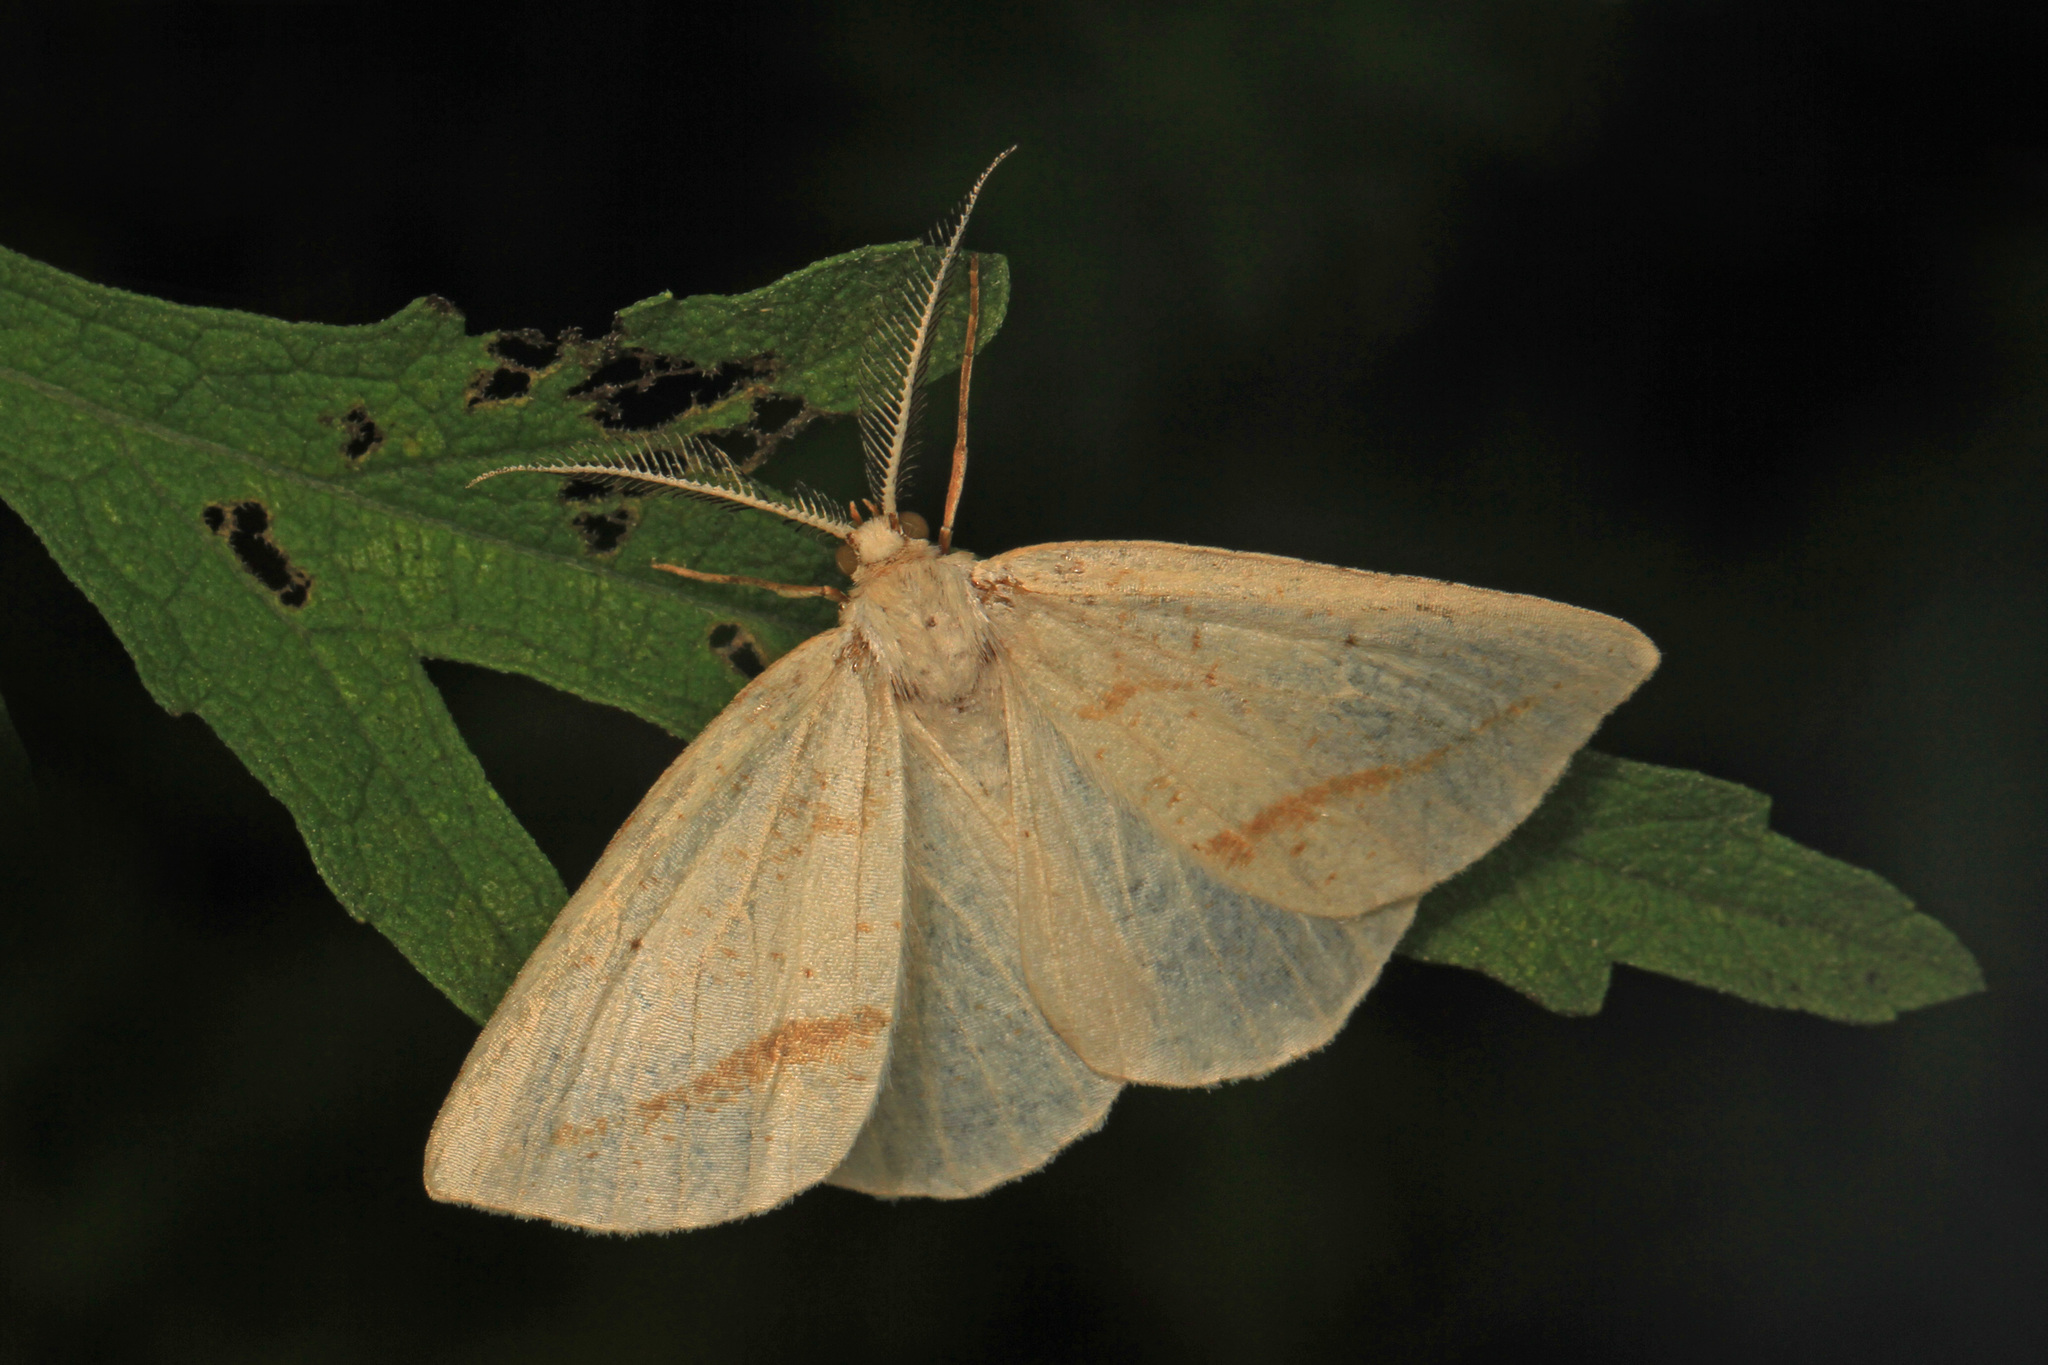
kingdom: Animalia
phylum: Arthropoda
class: Insecta
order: Lepidoptera
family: Geometridae
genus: Lychnosea
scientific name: Lychnosea intermicata
